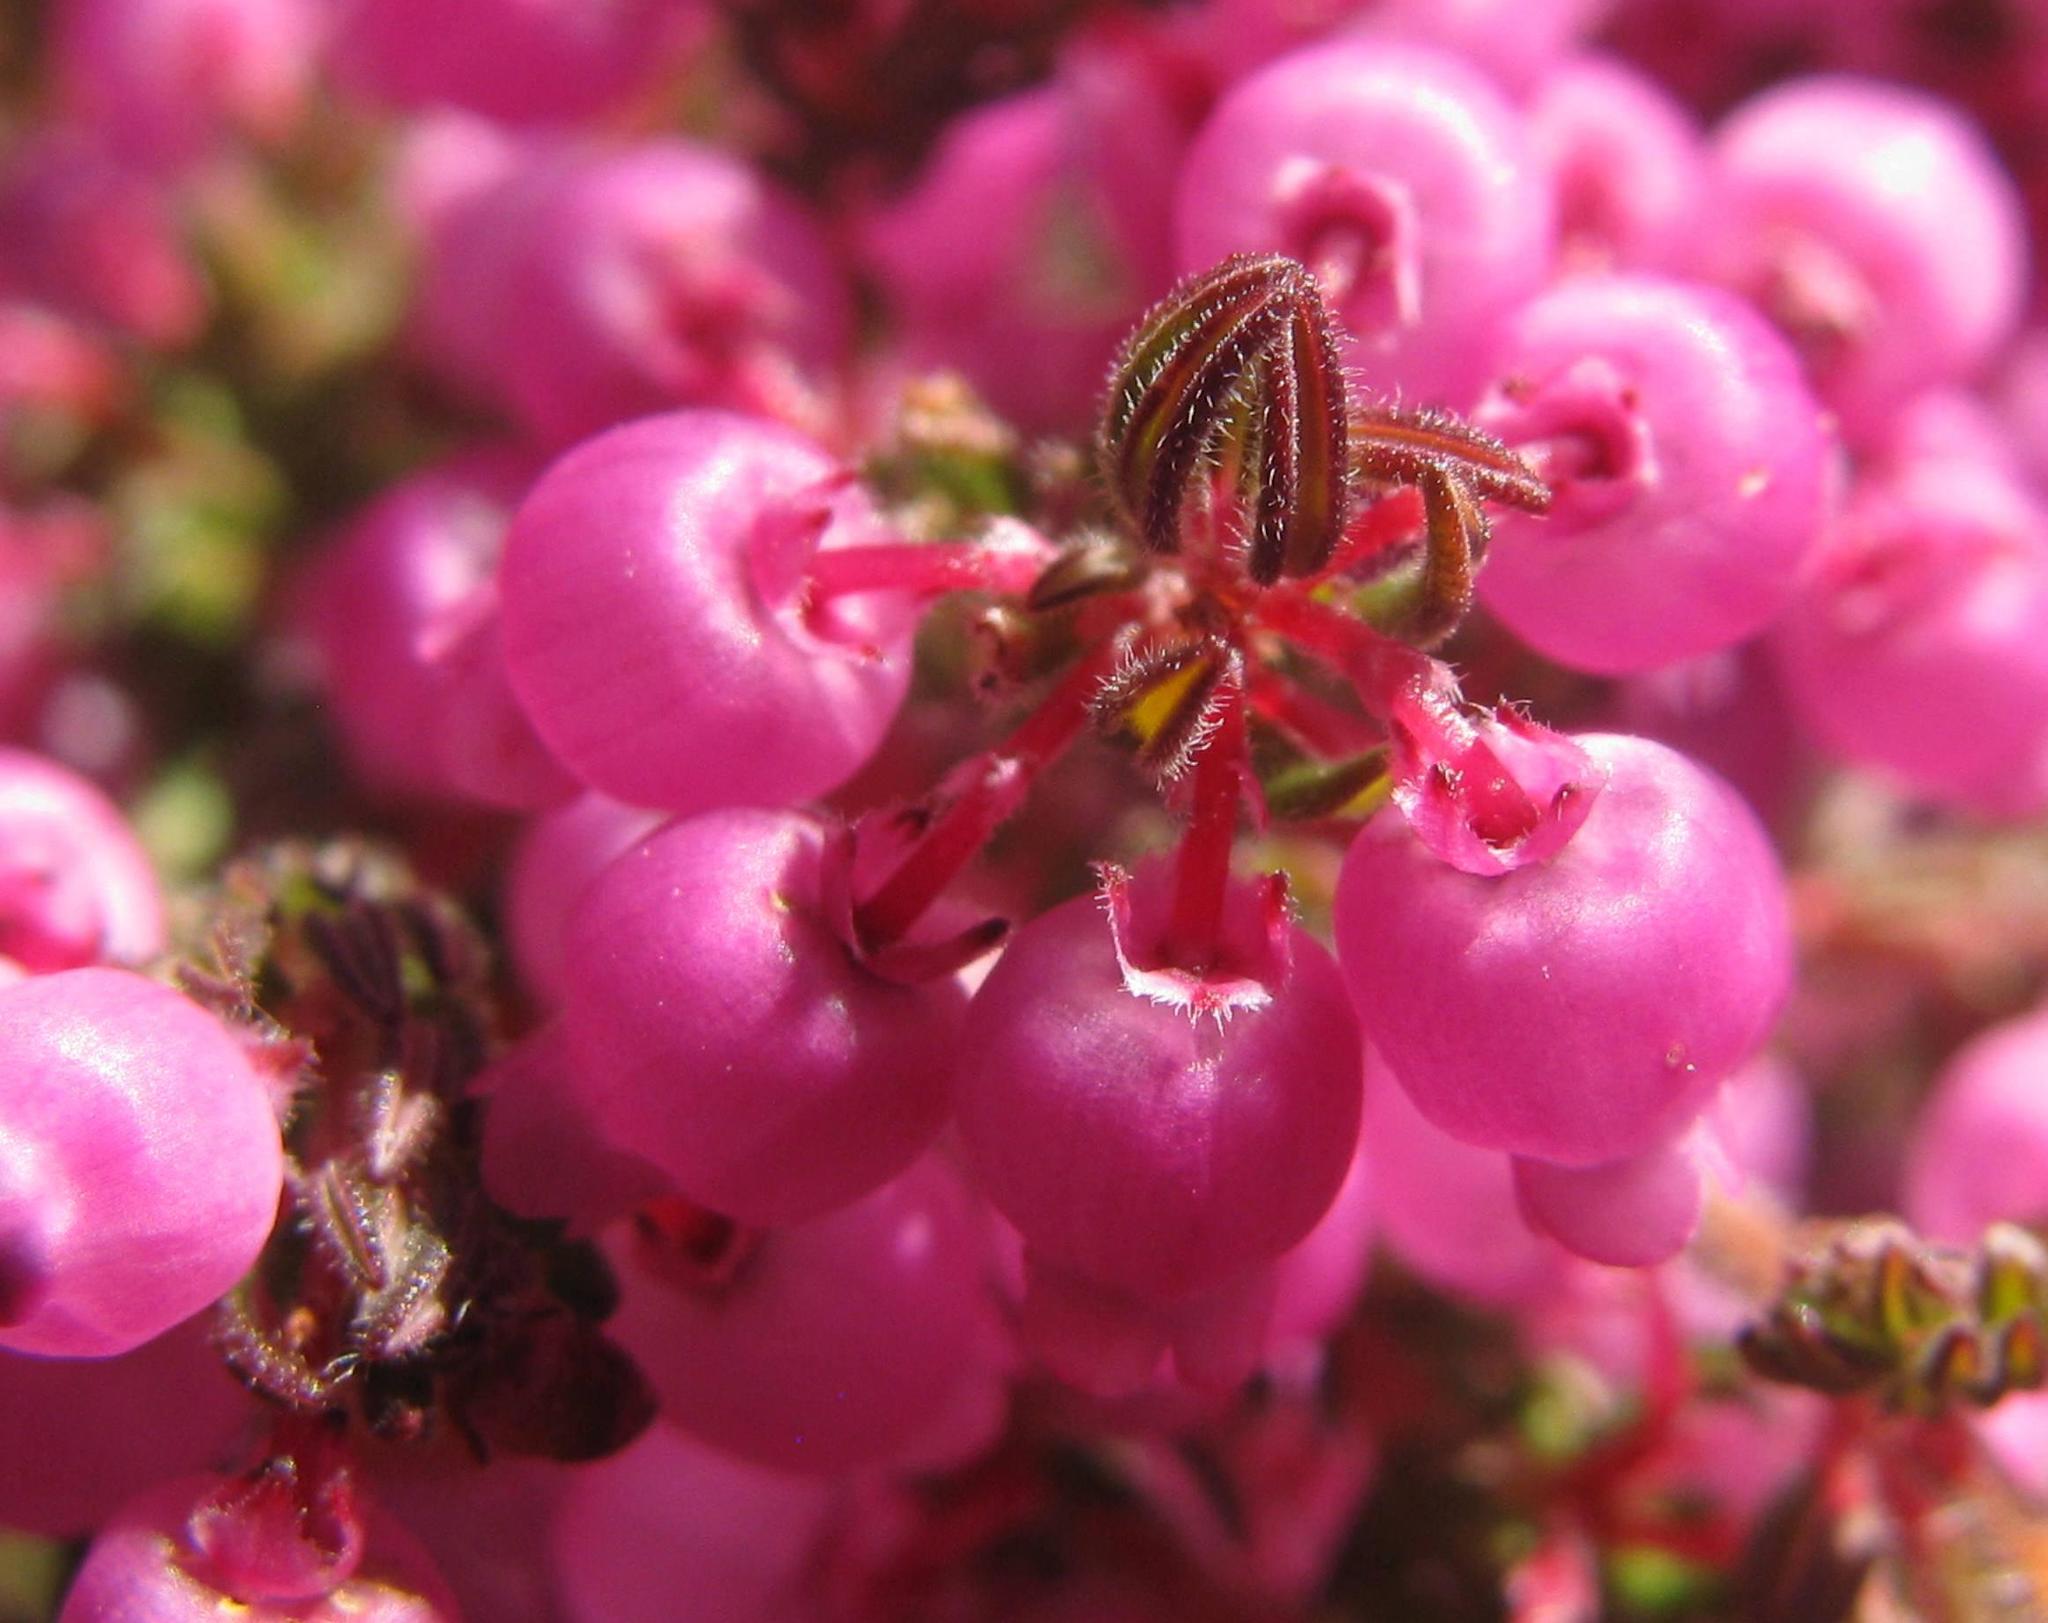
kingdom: Plantae
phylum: Tracheophyta
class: Magnoliopsida
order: Ericales
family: Ericaceae
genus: Erica
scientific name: Erica bergiana
